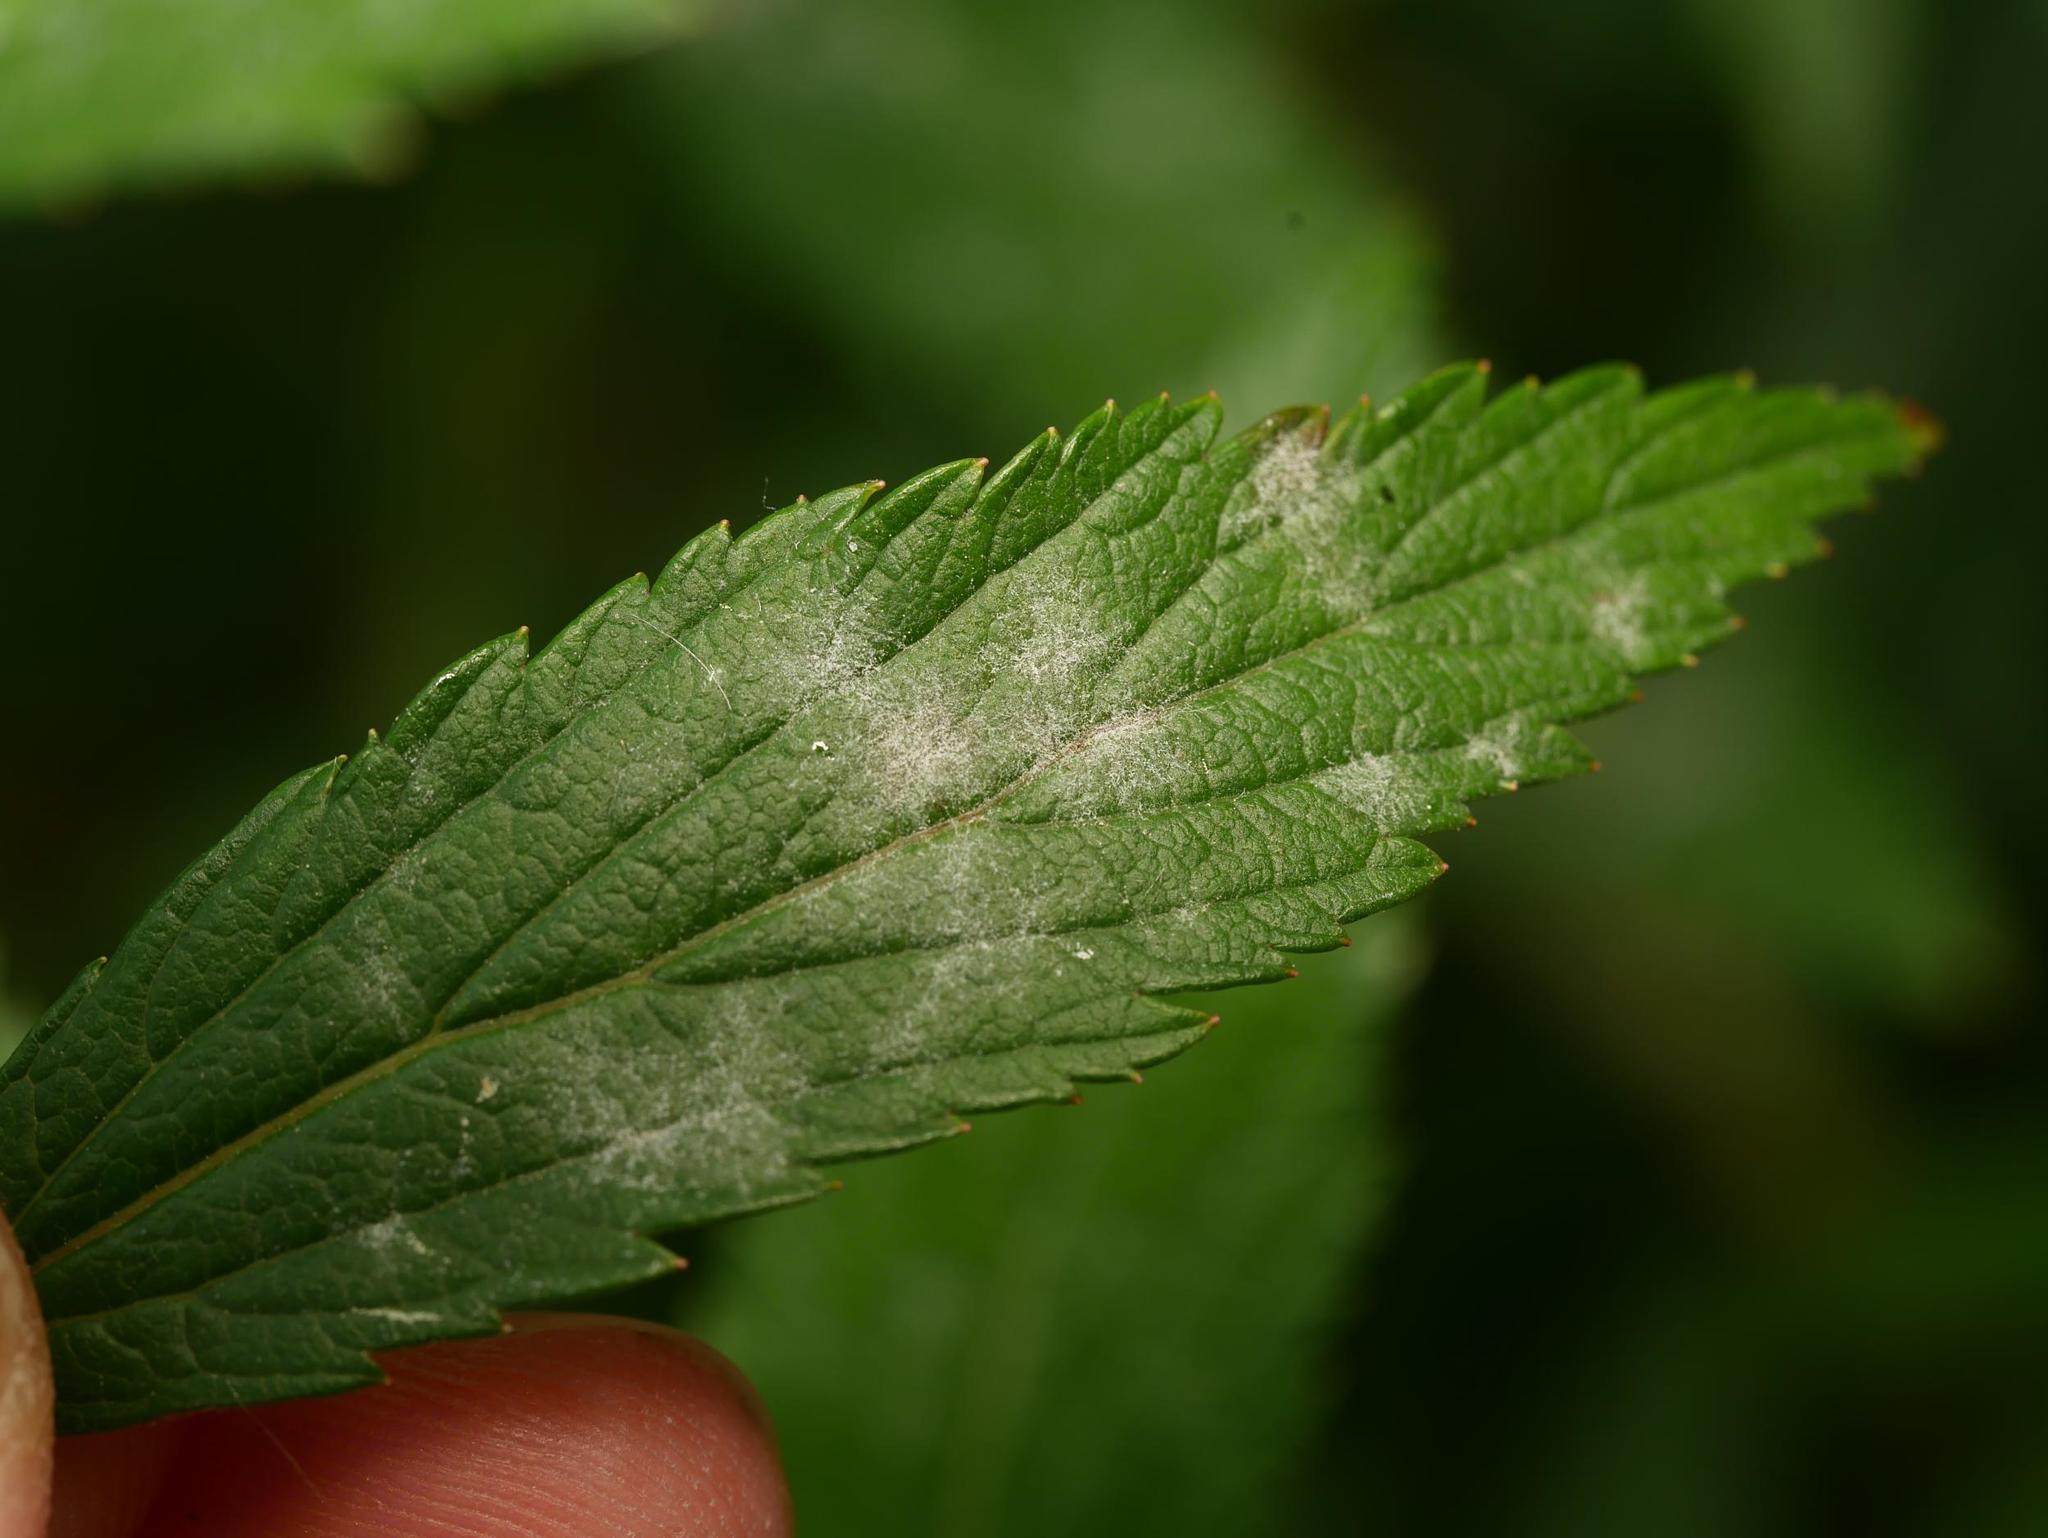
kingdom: Fungi
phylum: Ascomycota
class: Leotiomycetes
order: Helotiales
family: Erysiphaceae
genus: Podosphaera
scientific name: Podosphaera spiraeae
